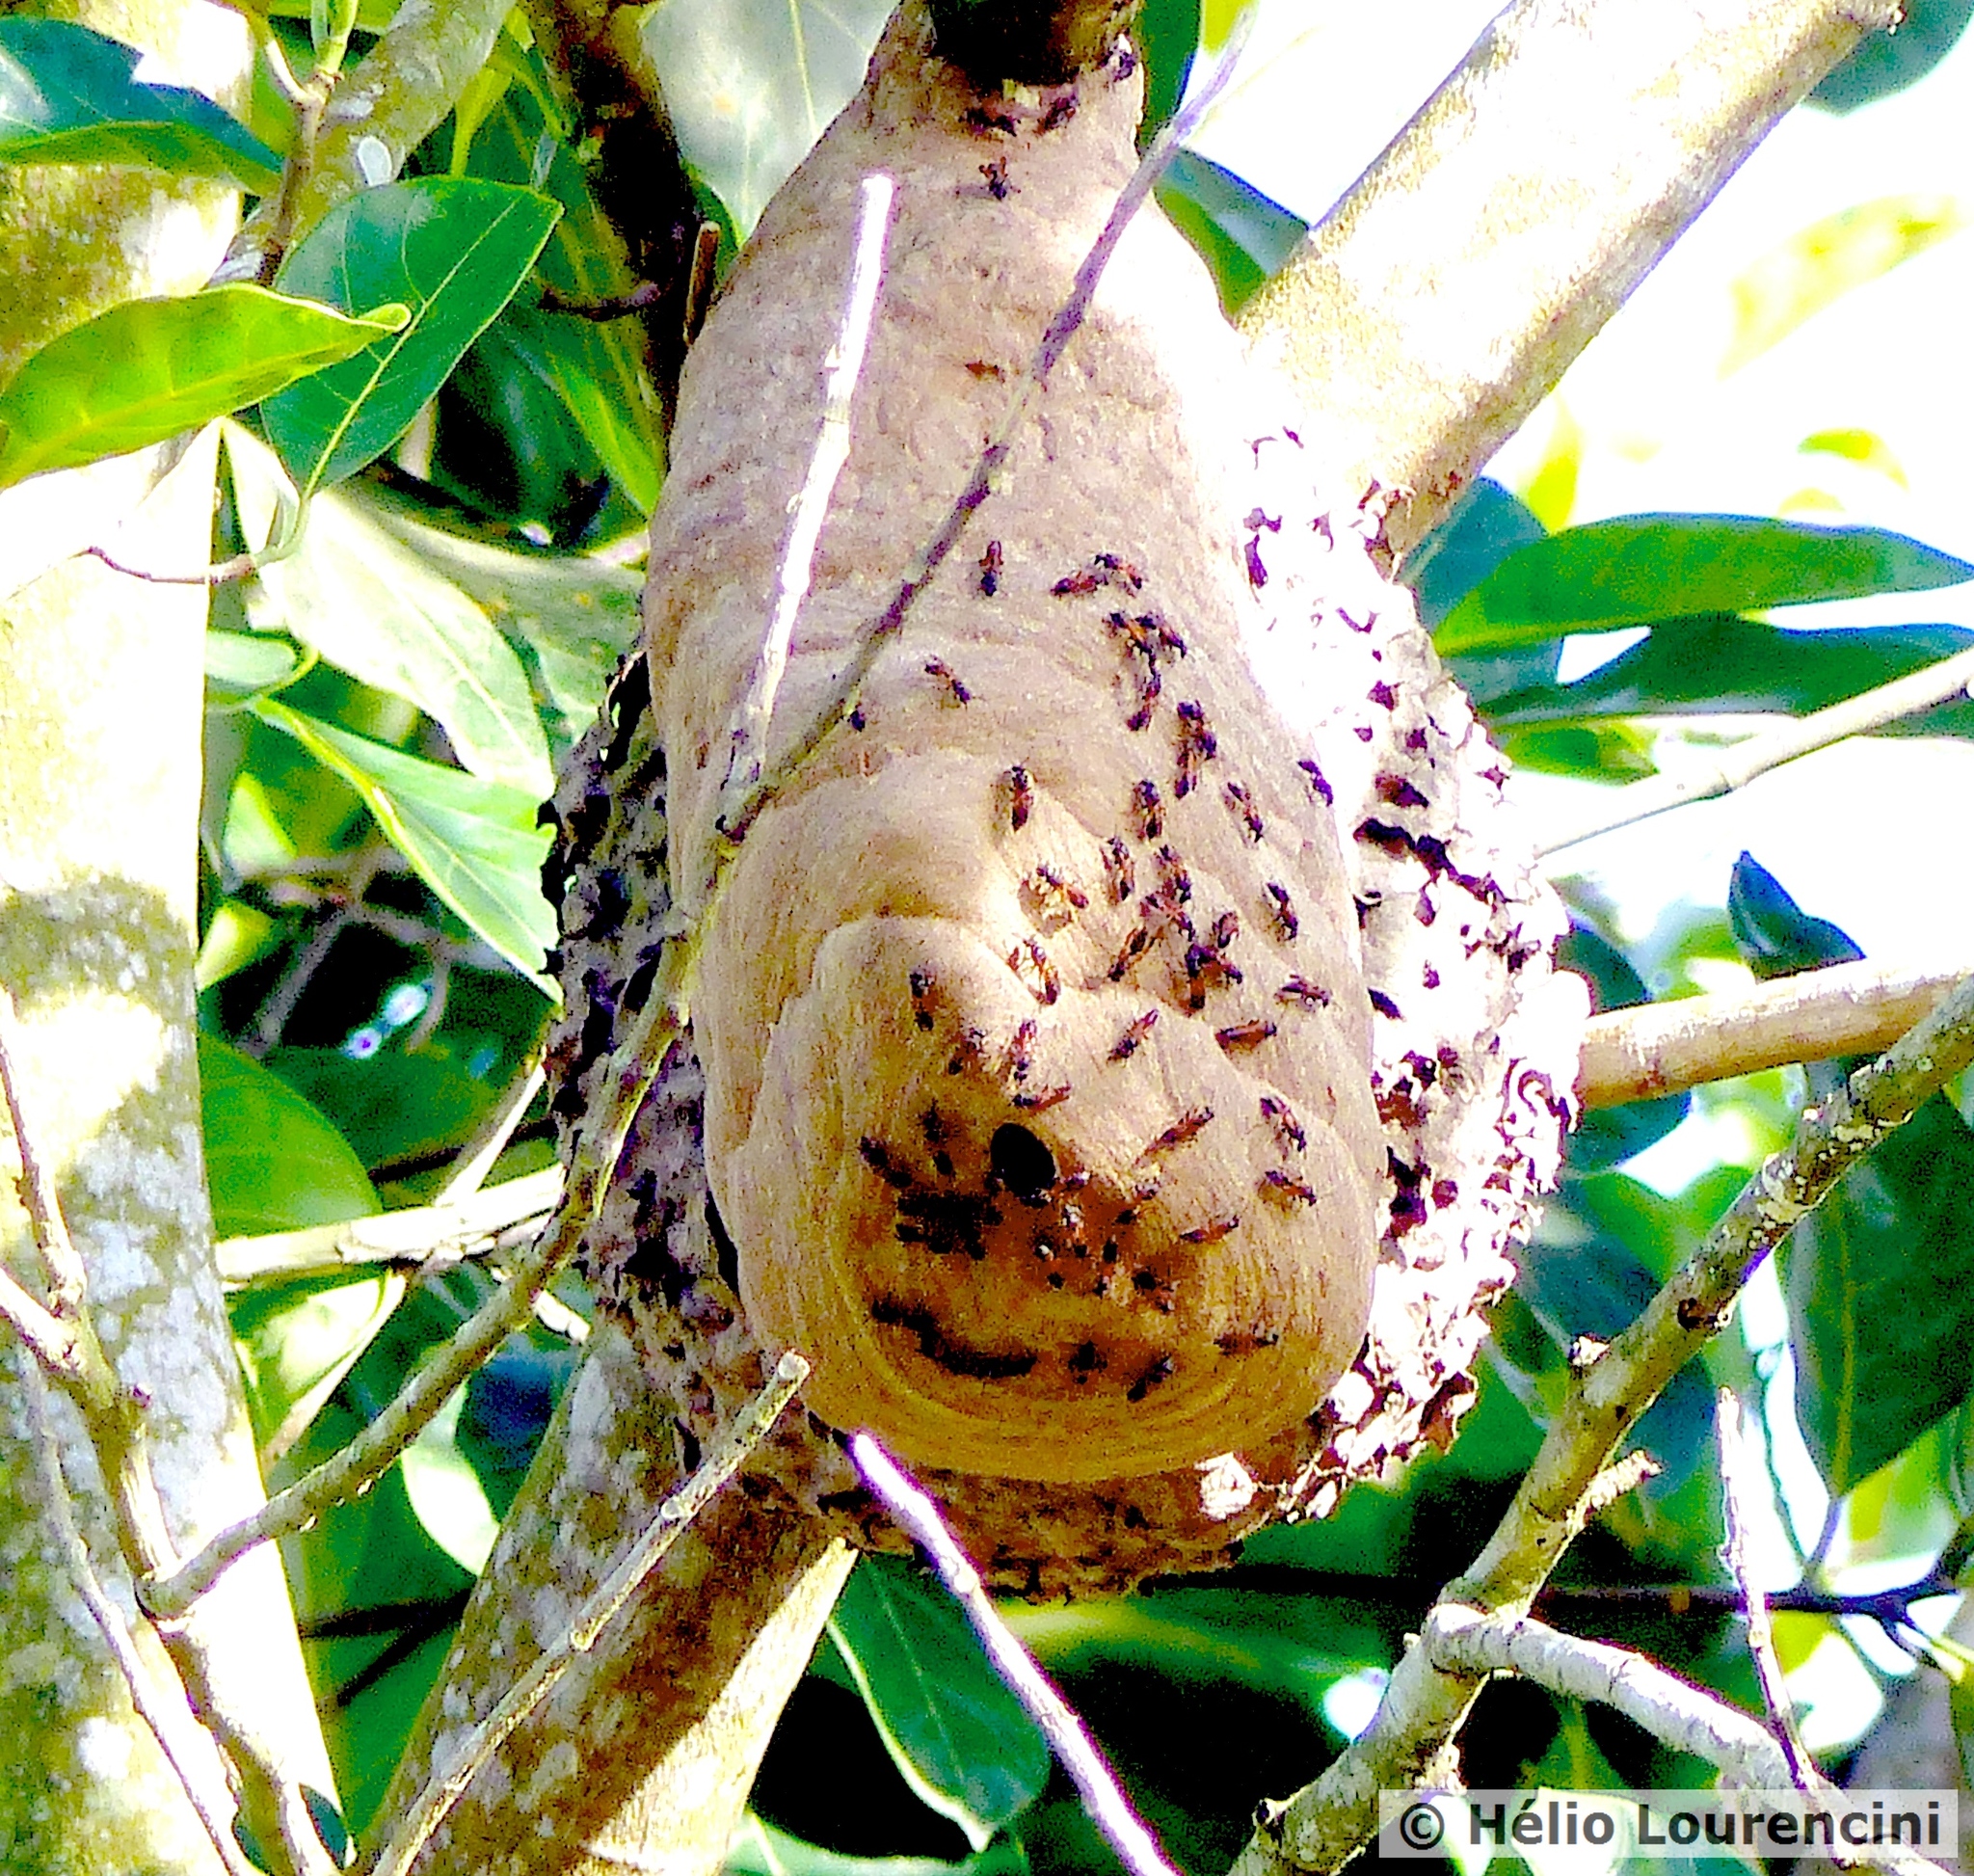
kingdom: Animalia
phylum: Arthropoda
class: Insecta
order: Hymenoptera
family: Eumenidae
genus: Polybia
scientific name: Polybia rejecta
